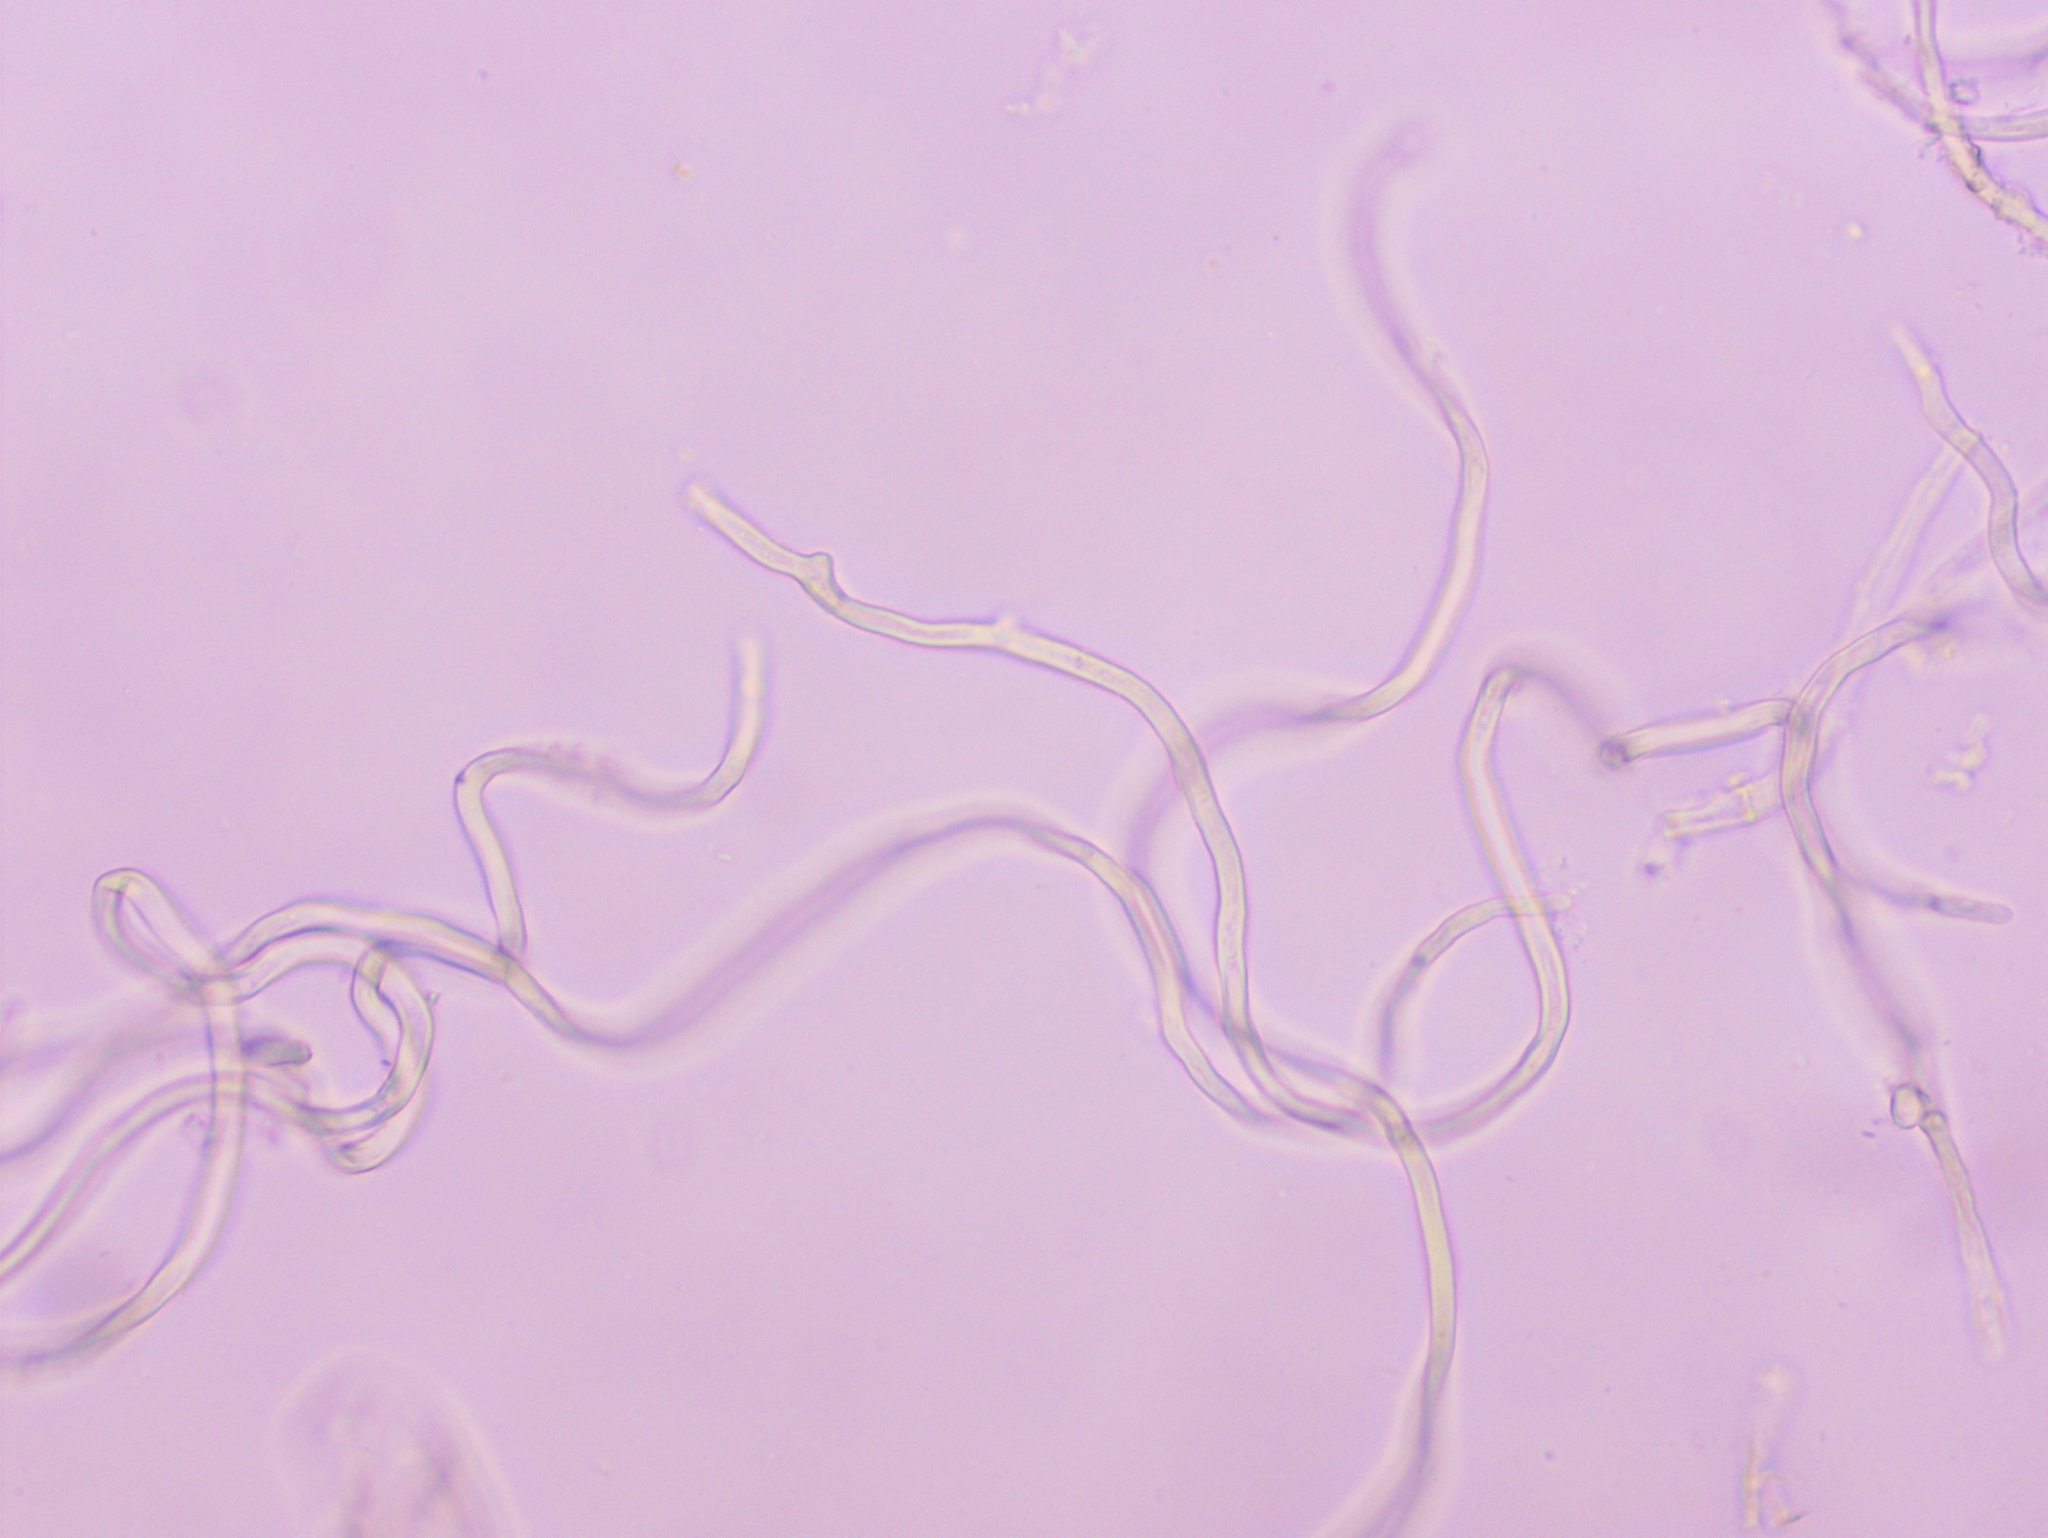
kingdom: Fungi
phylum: Ascomycota
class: Pezizomycetes
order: Pezizales
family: Sarcoscyphaceae
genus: Sarcoscypha
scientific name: Sarcoscypha austriaca
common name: Scarlet elfcup
